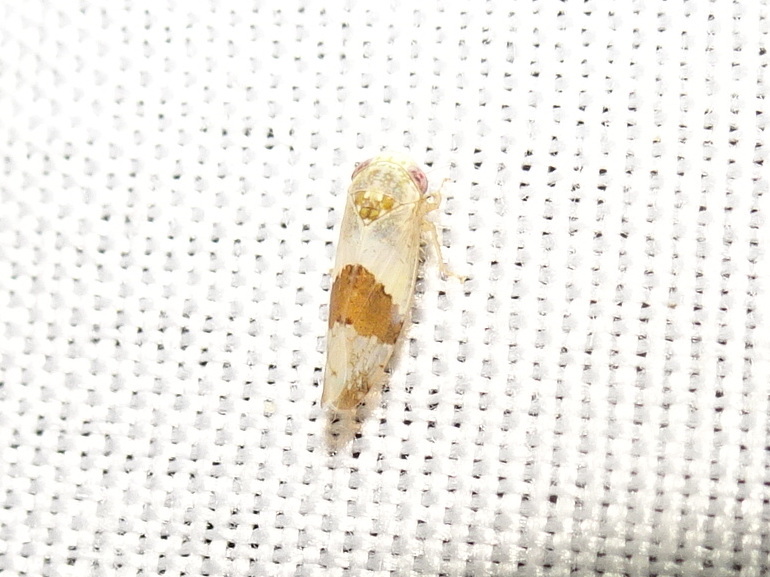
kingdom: Animalia
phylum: Arthropoda
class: Insecta
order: Hemiptera
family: Cicadellidae
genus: Norvellina
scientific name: Norvellina seminuda
